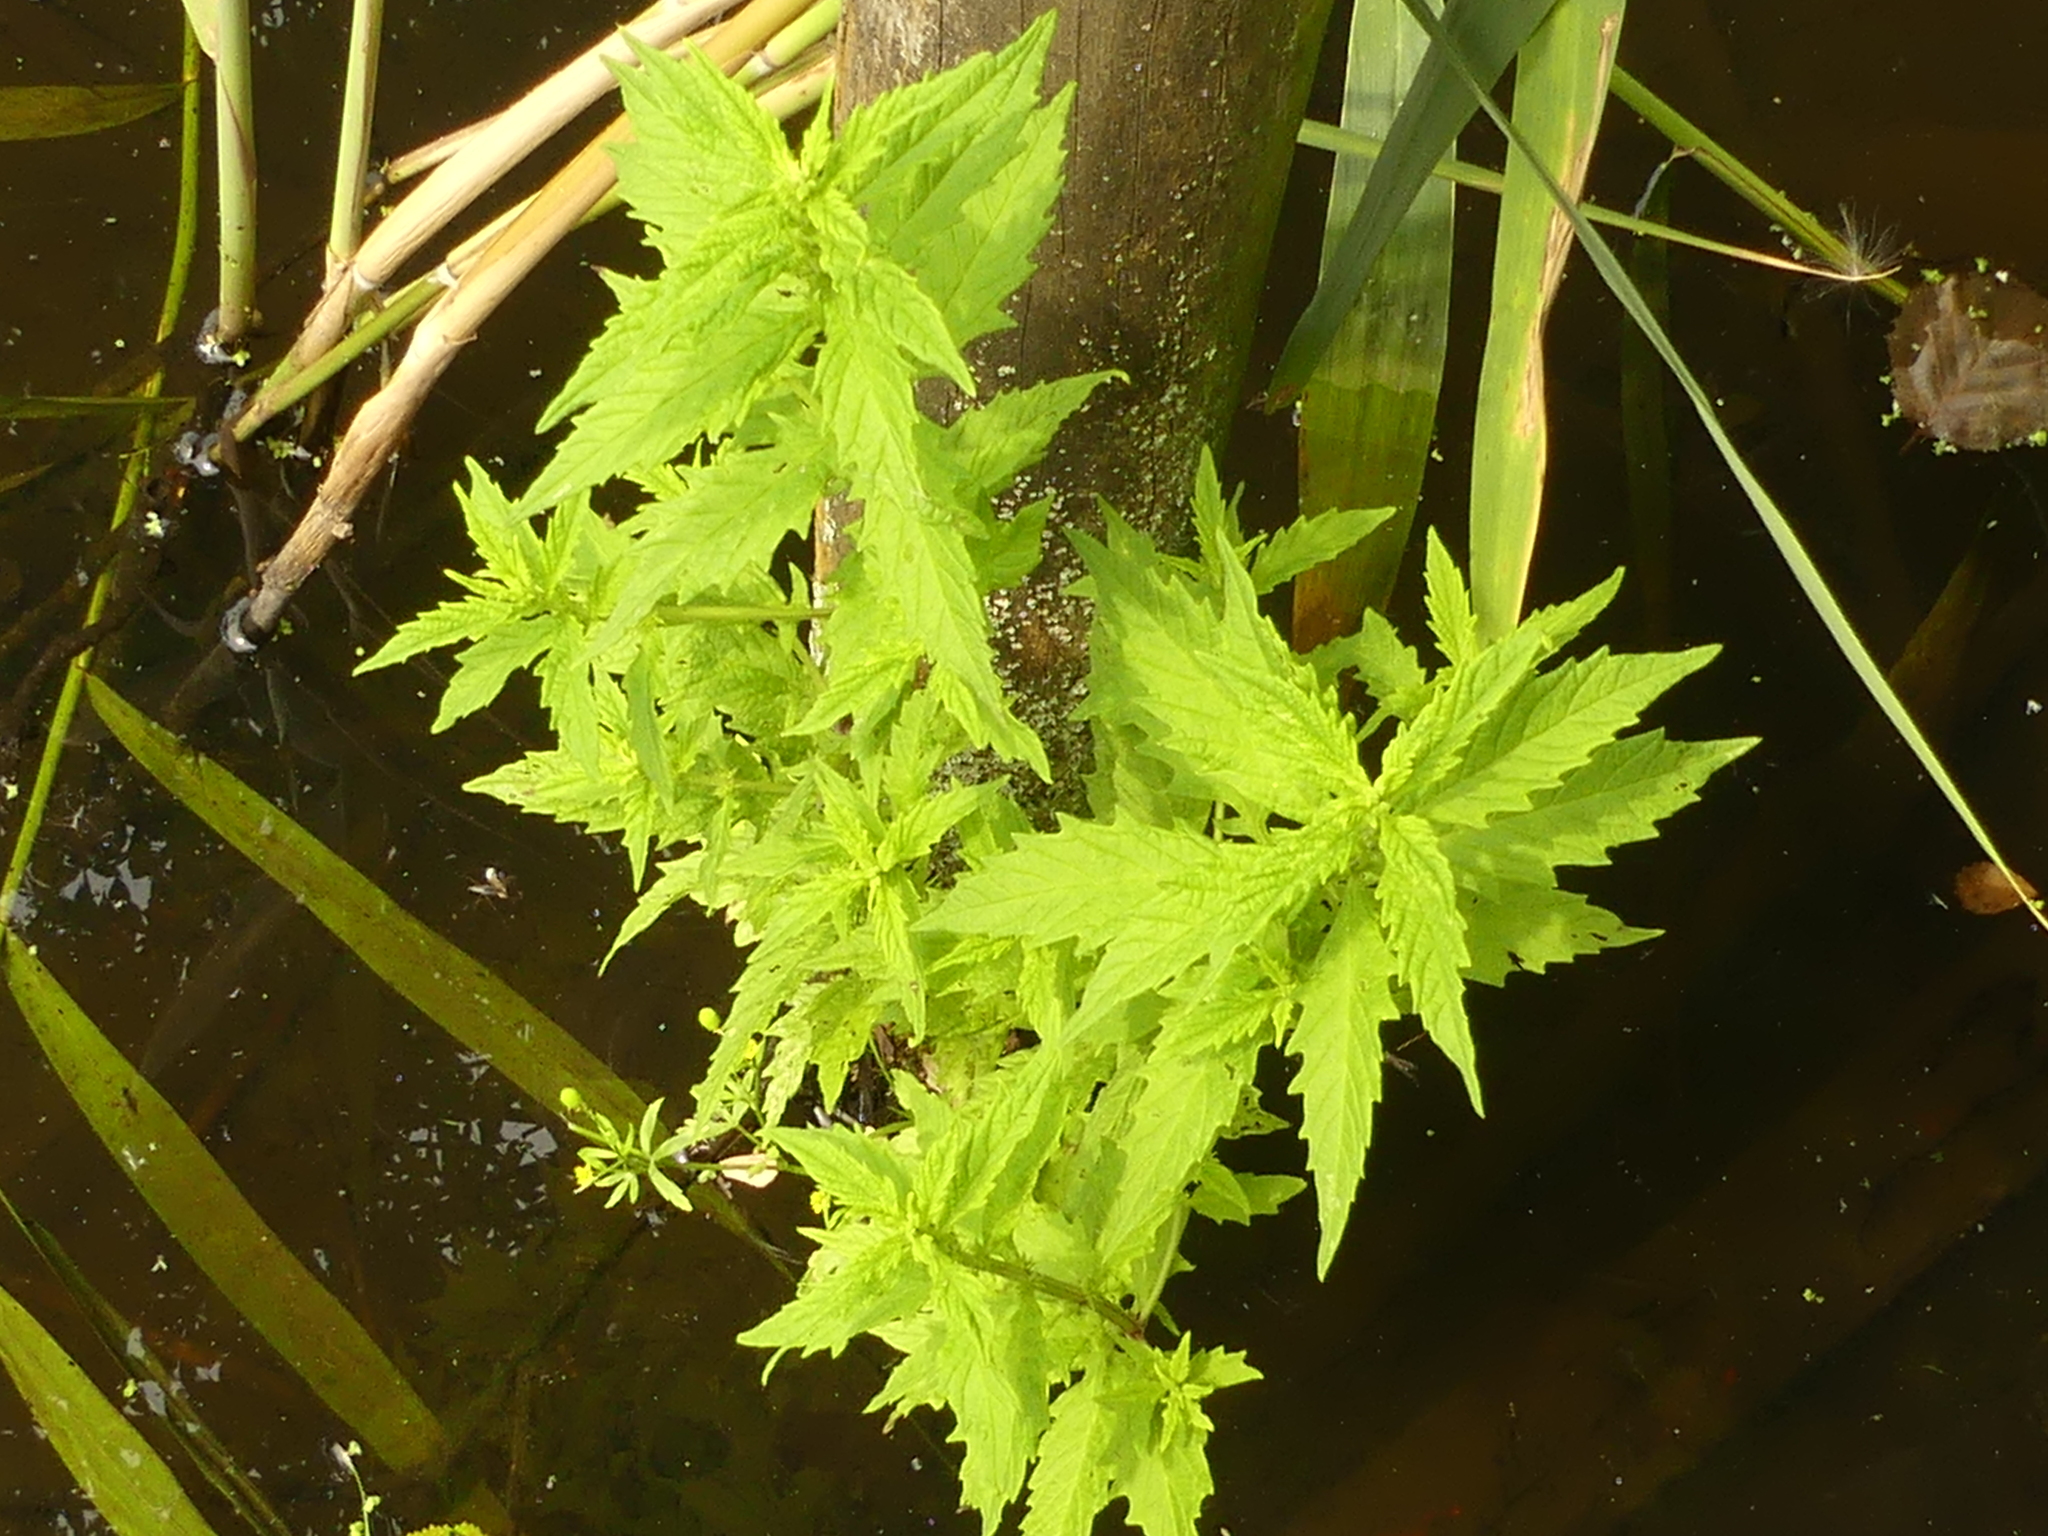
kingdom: Plantae
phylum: Tracheophyta
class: Magnoliopsida
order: Lamiales
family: Lamiaceae
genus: Lycopus
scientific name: Lycopus europaeus
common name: European bugleweed
